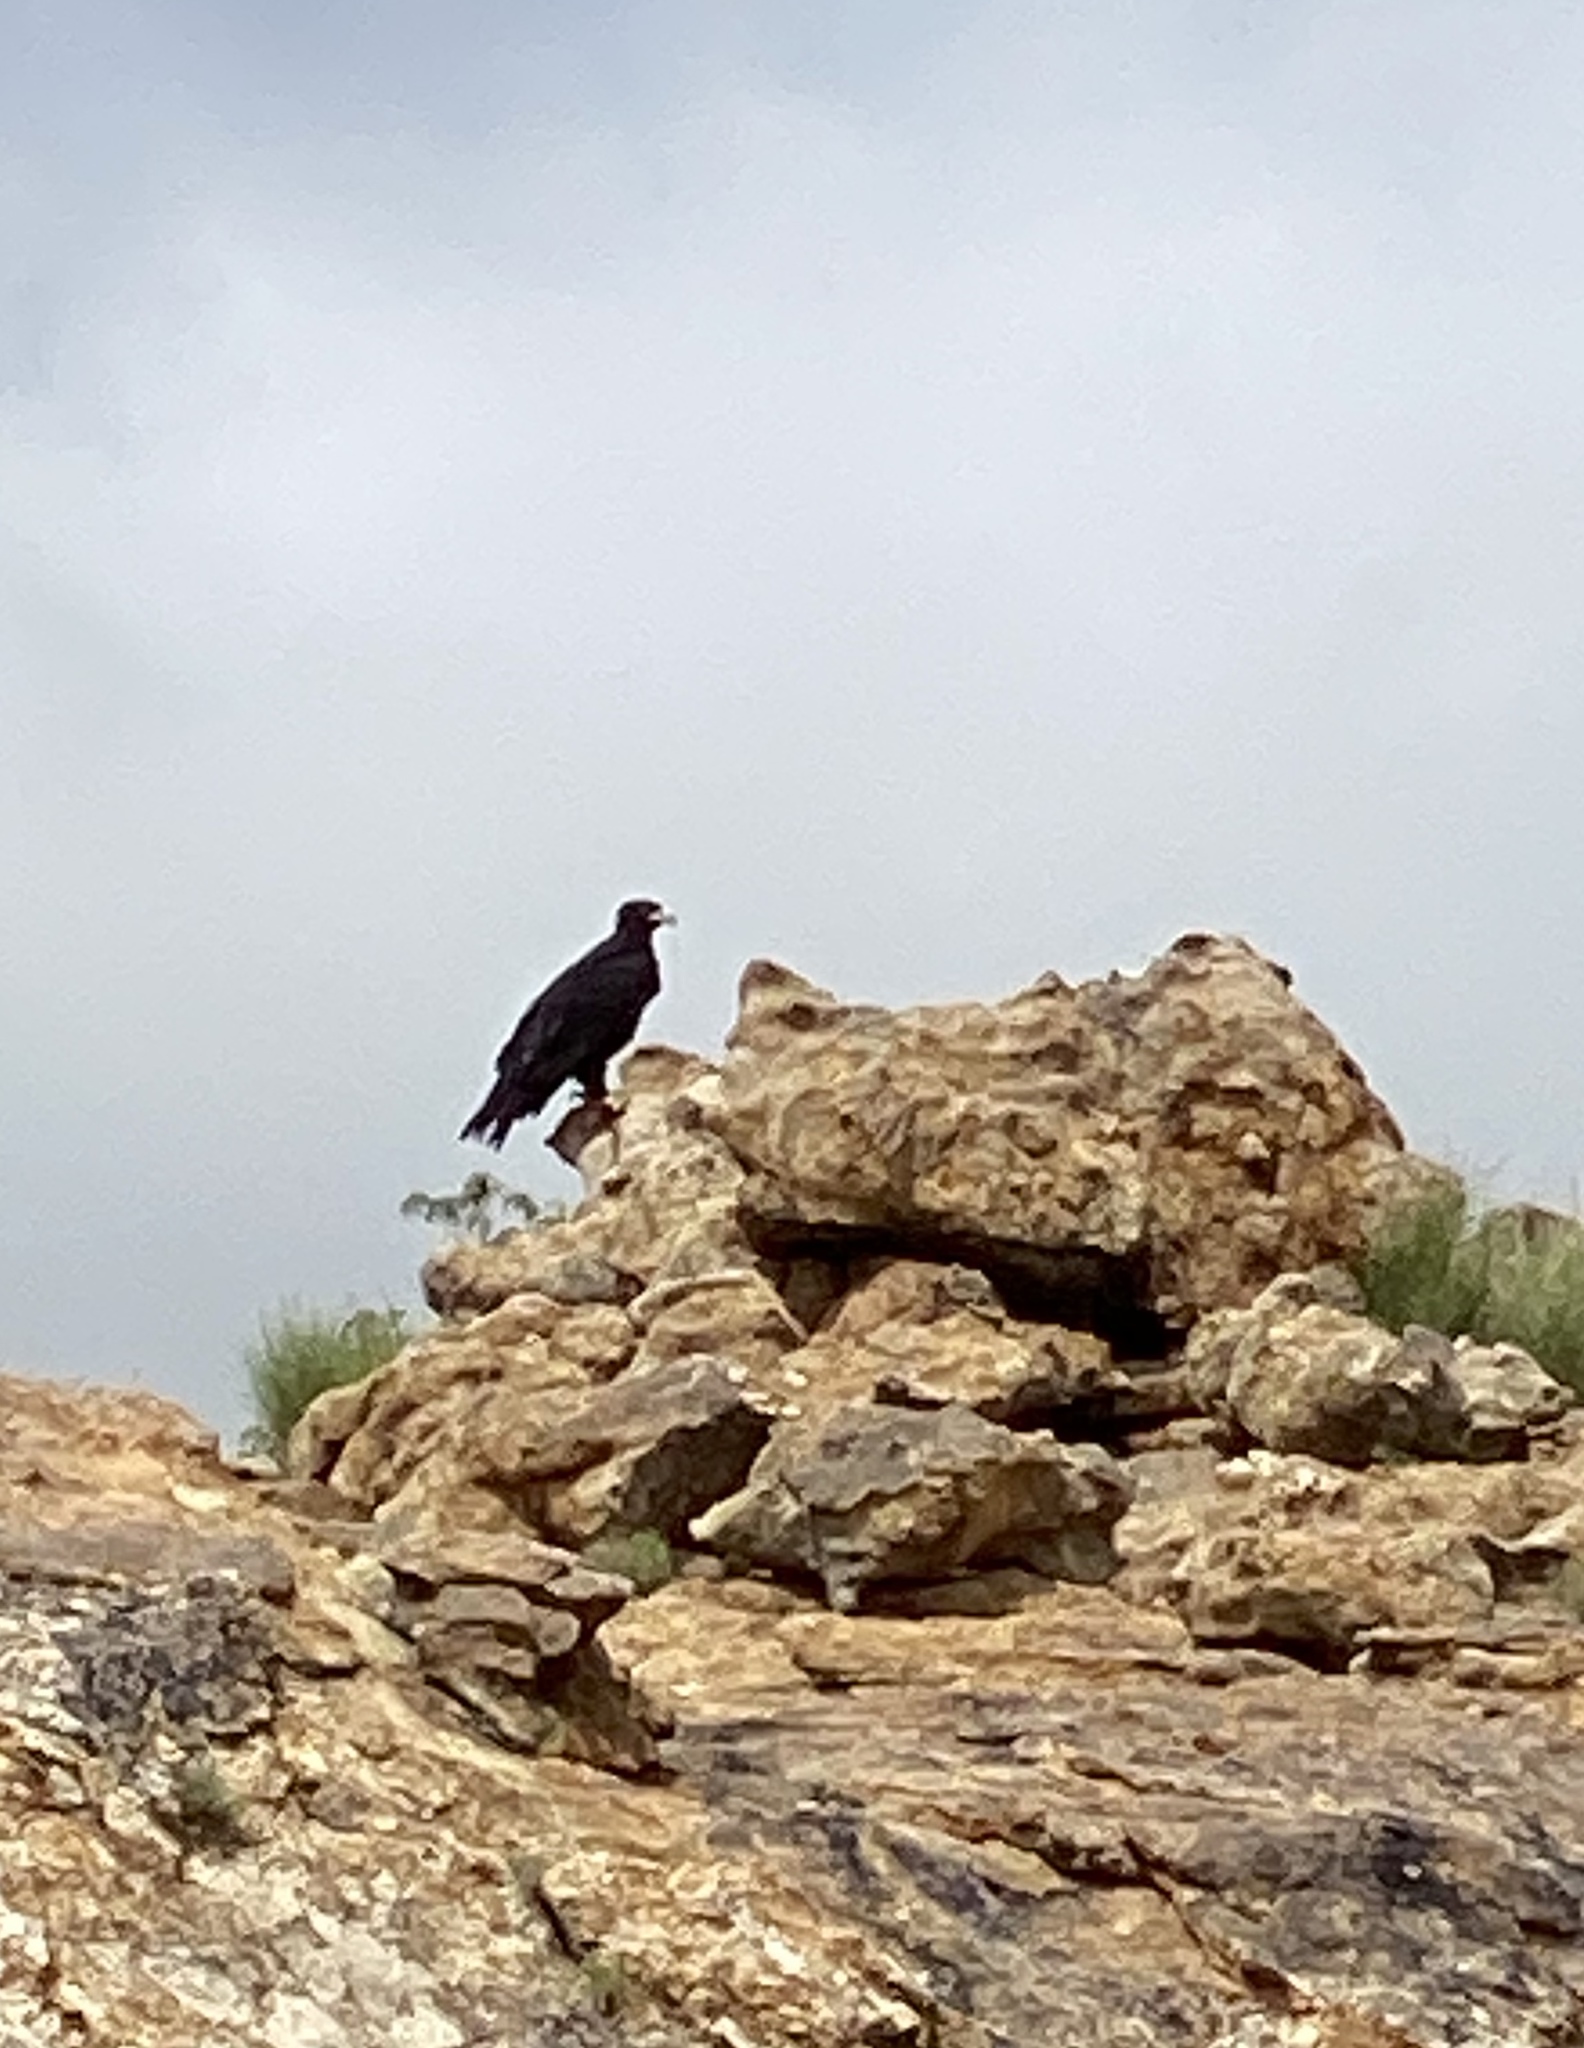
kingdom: Animalia
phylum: Chordata
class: Aves
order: Accipitriformes
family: Accipitridae
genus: Aquila
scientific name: Aquila verreauxii
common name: Verreaux's eagle
